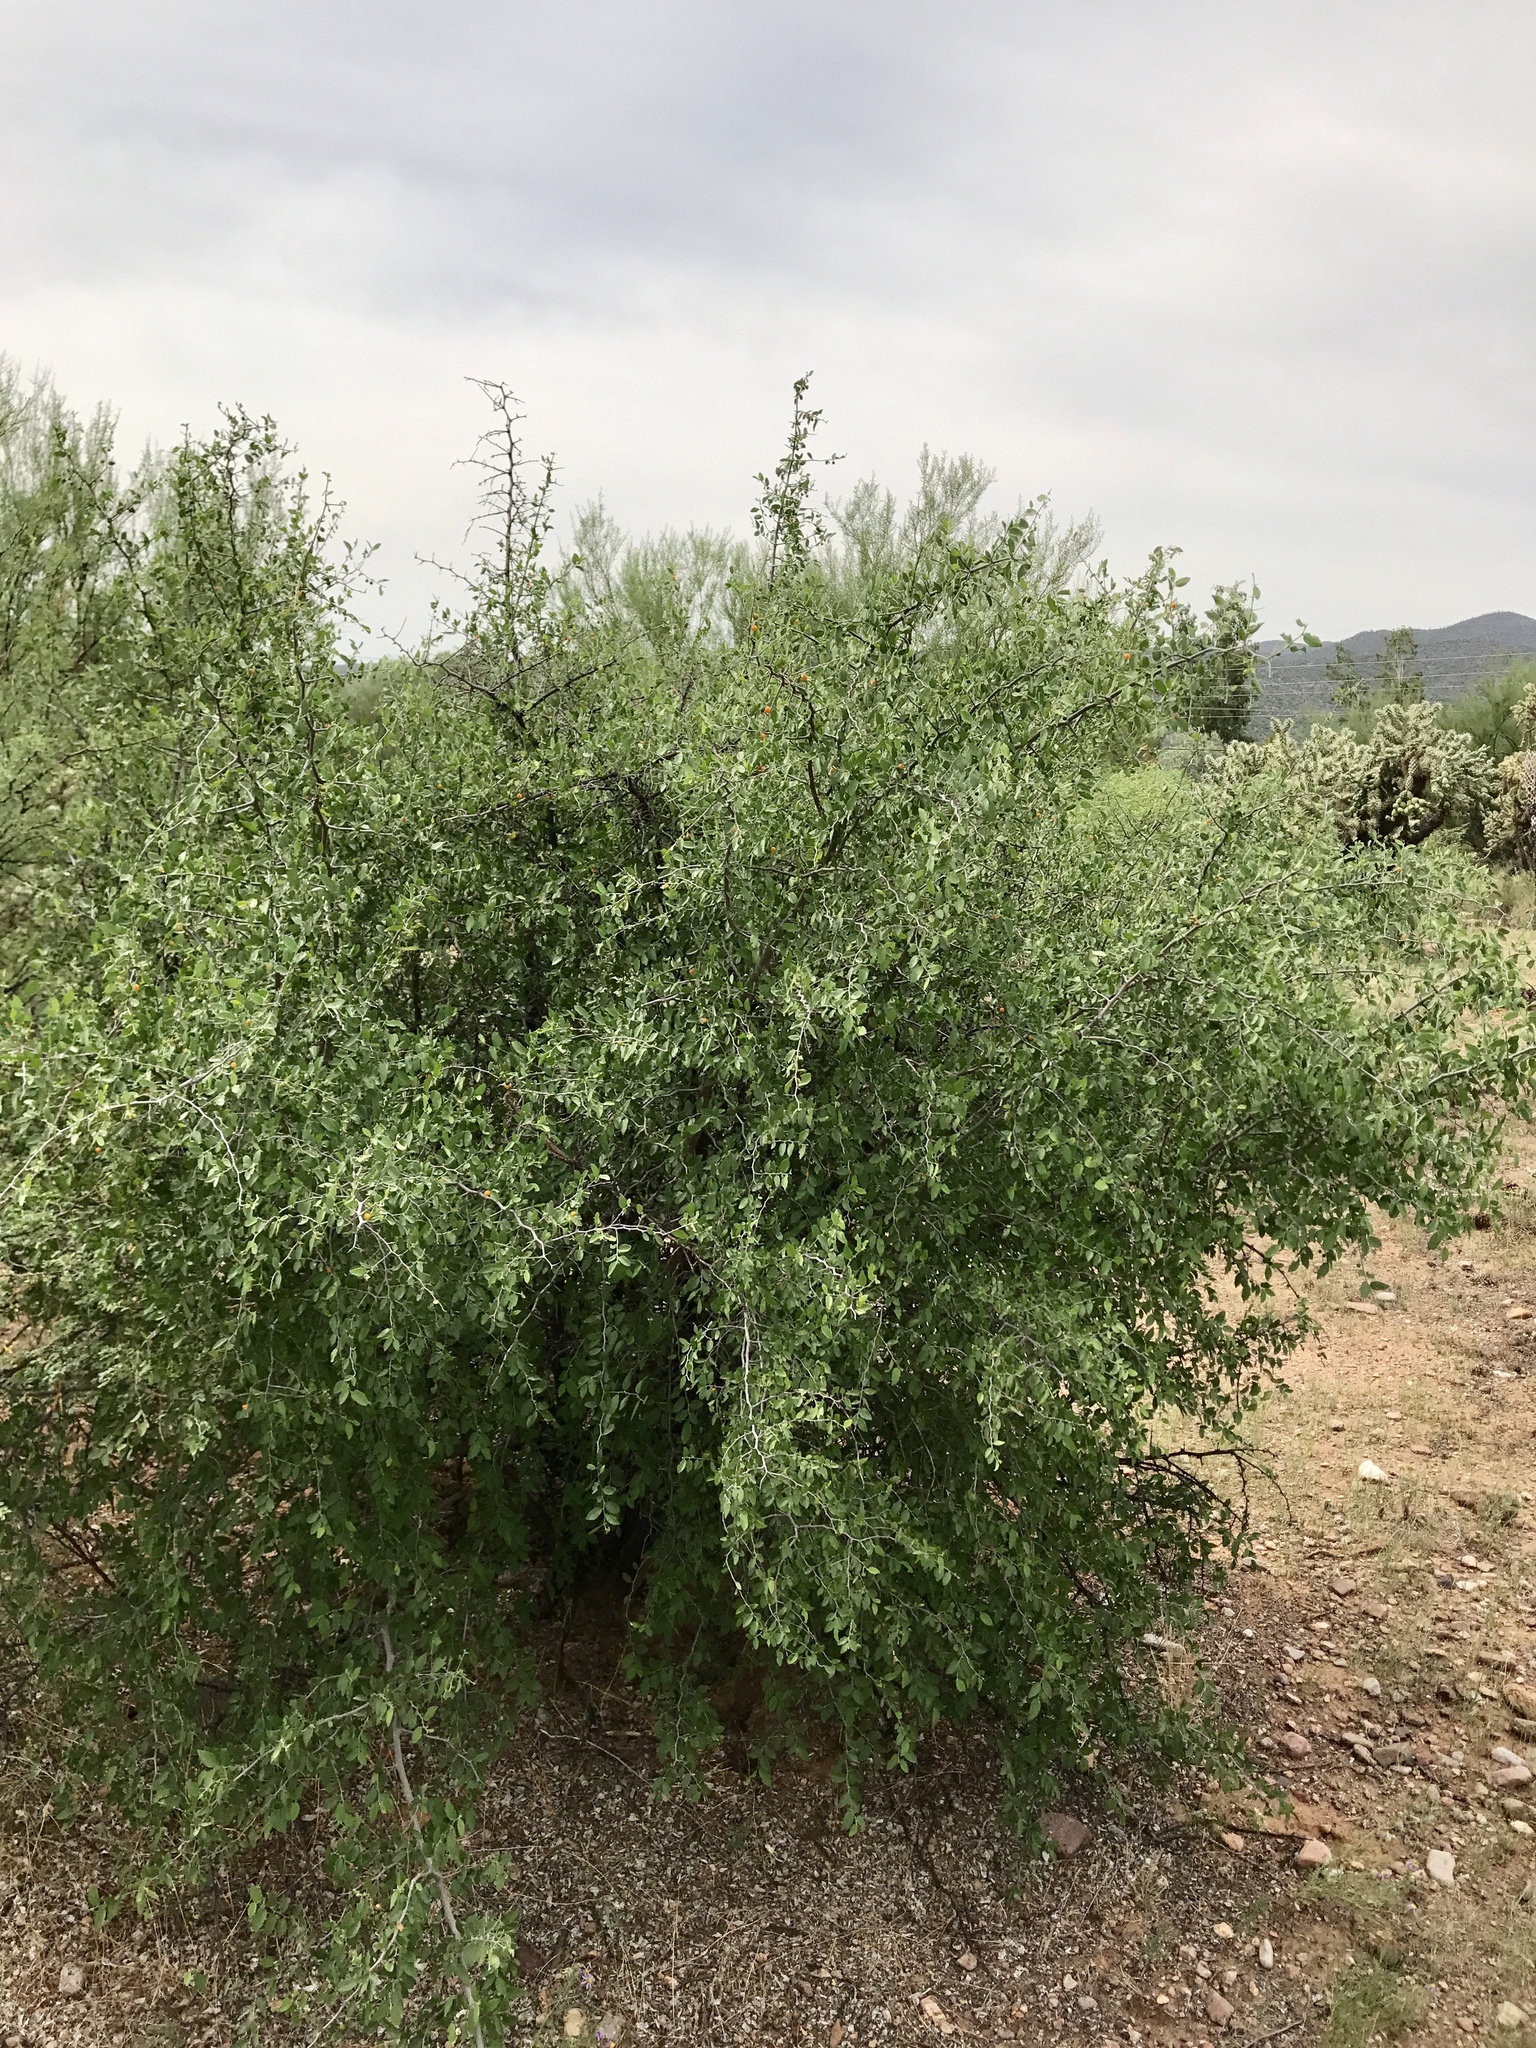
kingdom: Plantae
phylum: Tracheophyta
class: Magnoliopsida
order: Rosales
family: Cannabaceae
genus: Celtis
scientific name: Celtis pallida
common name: Desert hackberry
